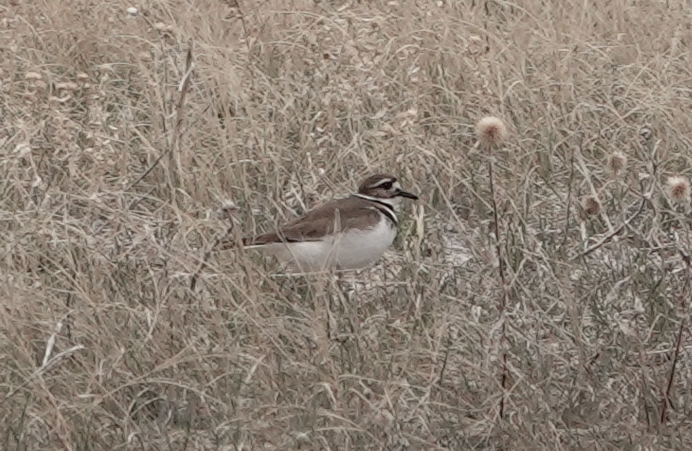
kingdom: Animalia
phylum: Chordata
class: Aves
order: Charadriiformes
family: Charadriidae
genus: Charadrius
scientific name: Charadrius vociferus
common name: Killdeer
